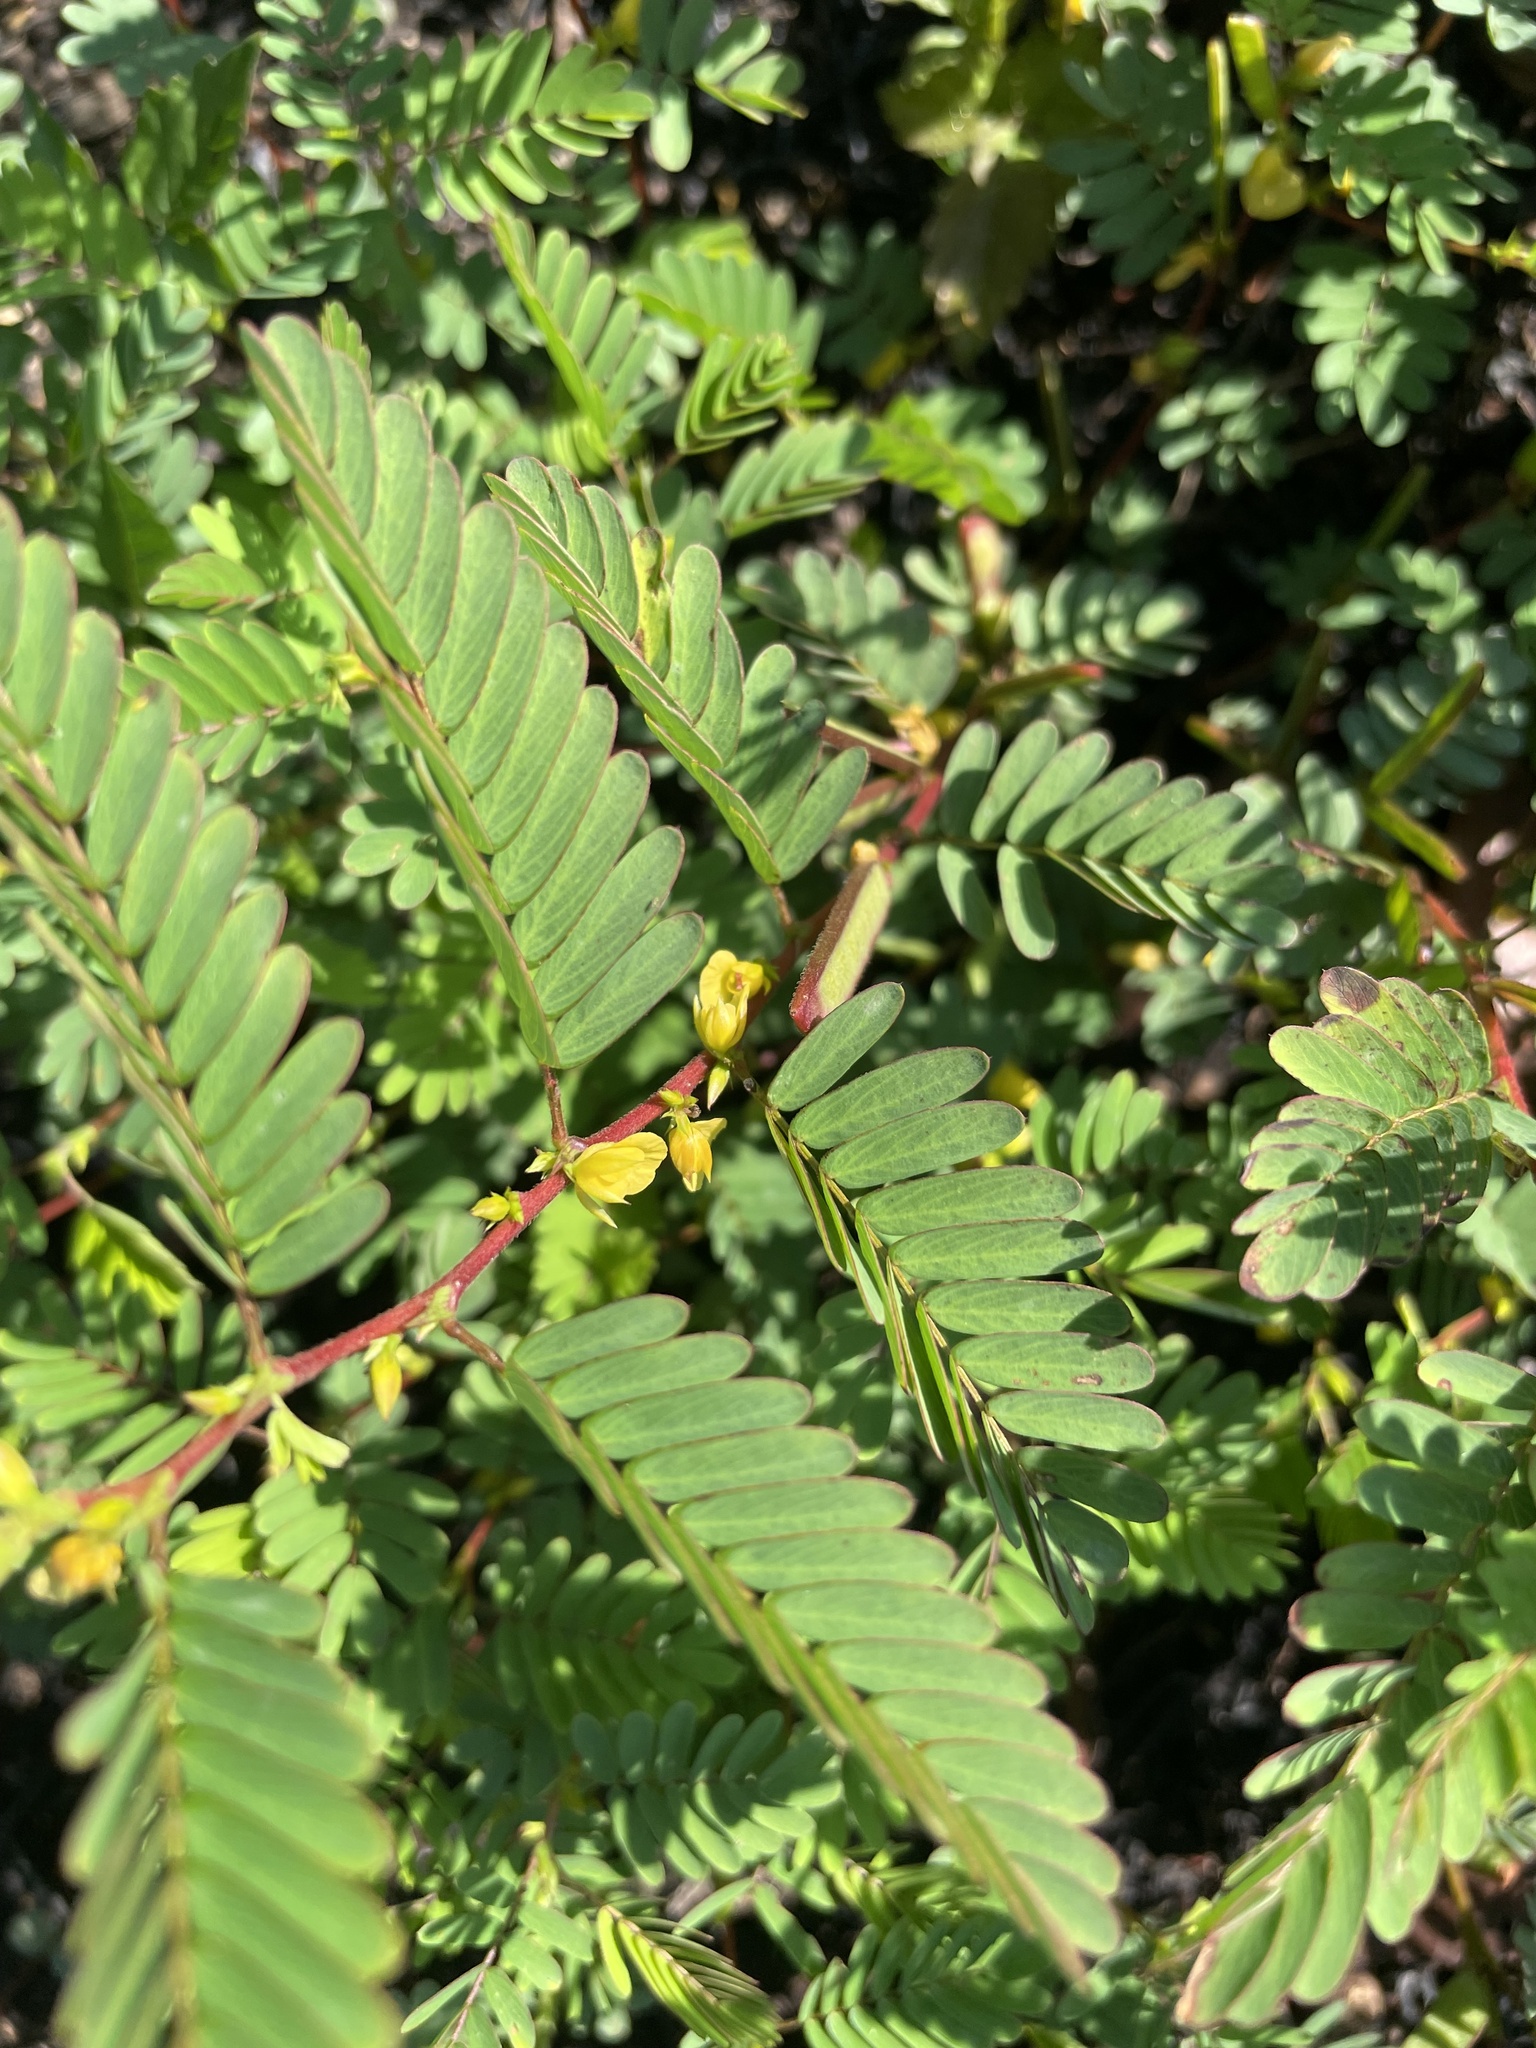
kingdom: Plantae
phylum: Tracheophyta
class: Magnoliopsida
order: Fabales
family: Fabaceae
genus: Chamaecrista
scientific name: Chamaecrista nictitans
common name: Sensitive cassia
